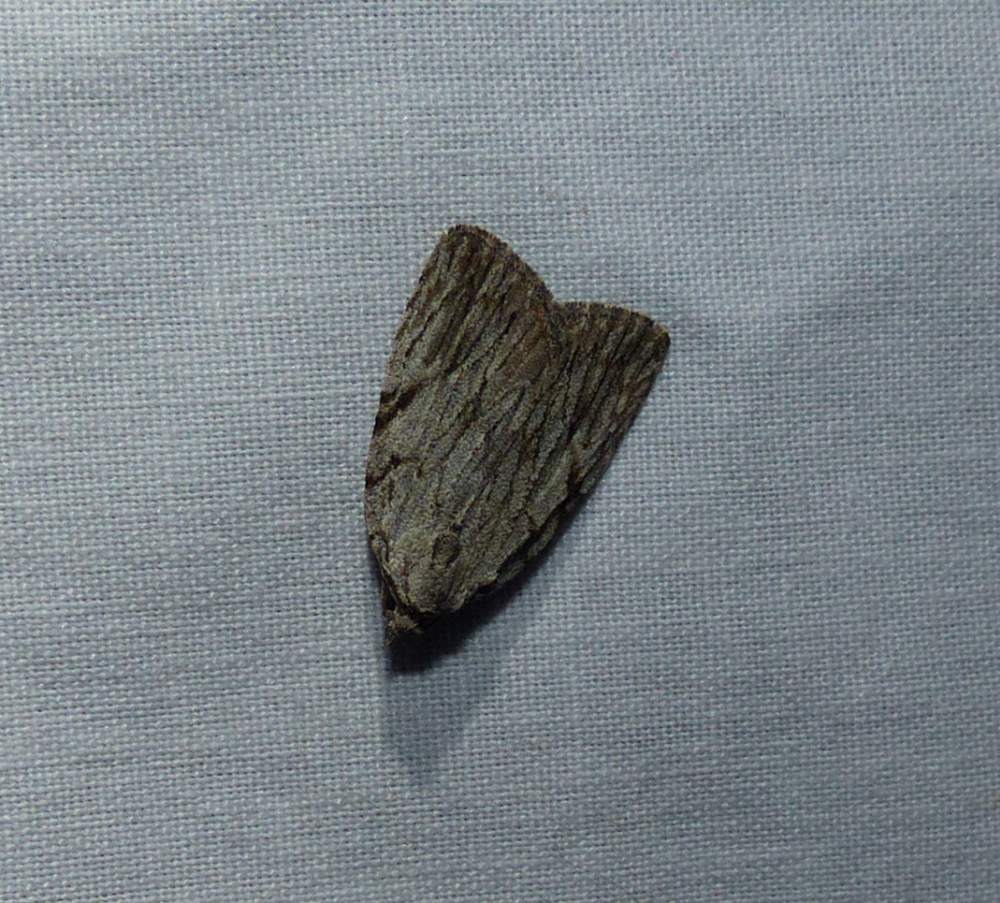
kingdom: Animalia
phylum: Arthropoda
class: Insecta
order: Lepidoptera
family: Noctuidae
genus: Balsa
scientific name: Balsa tristrigella
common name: Three-lined balsa moth
